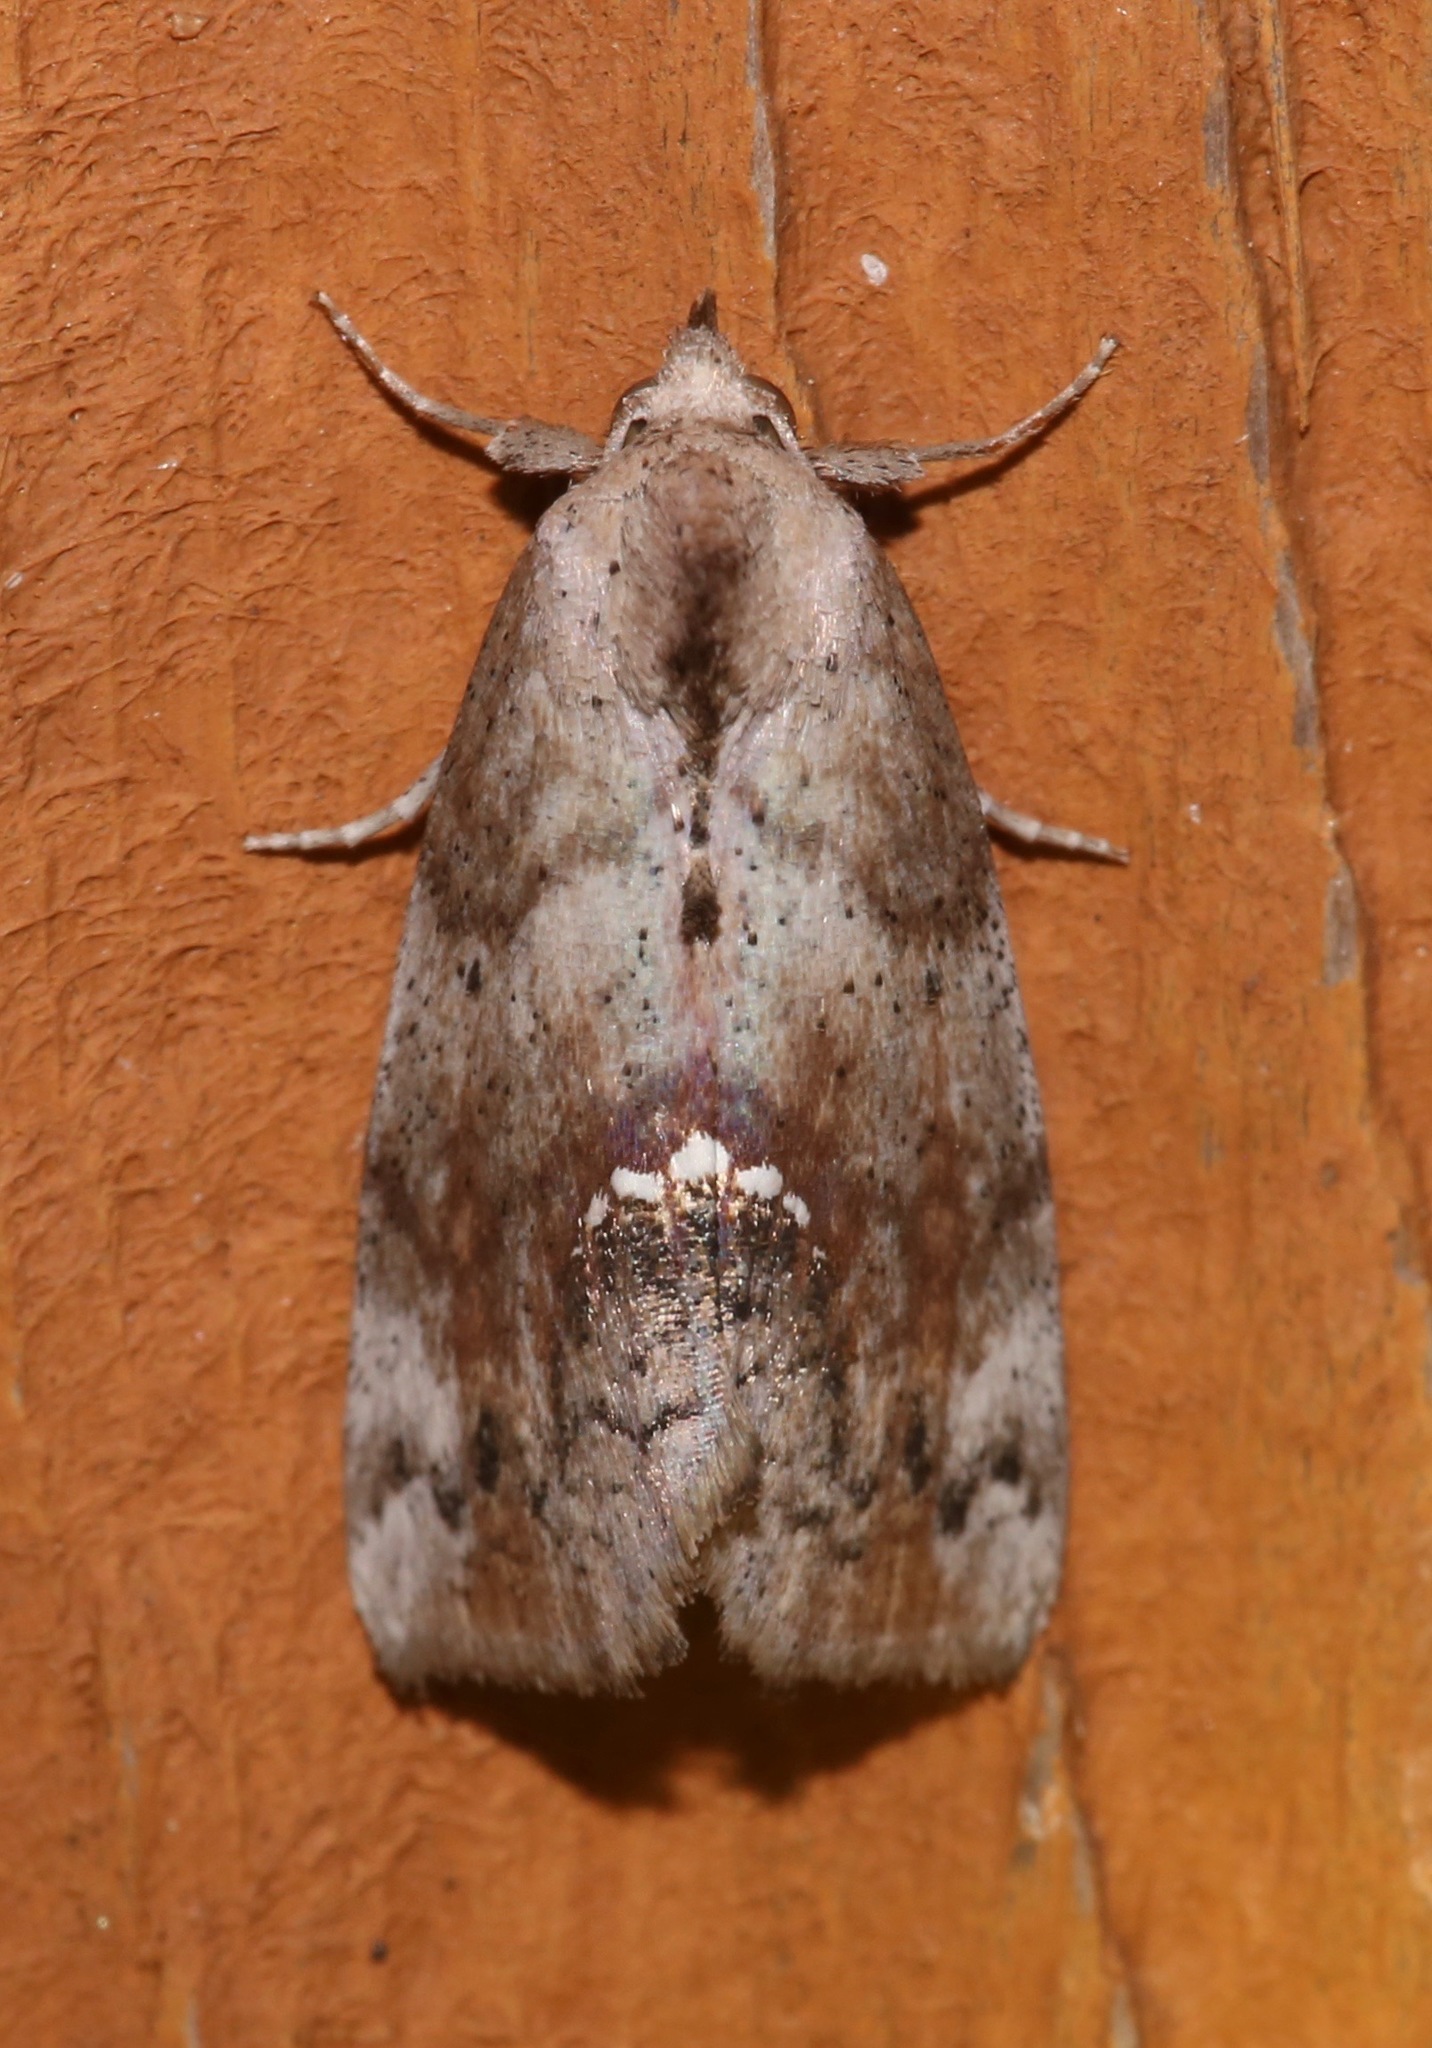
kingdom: Animalia
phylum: Arthropoda
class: Insecta
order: Lepidoptera
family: Erebidae
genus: Hypsoropha
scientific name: Hypsoropha hormos
